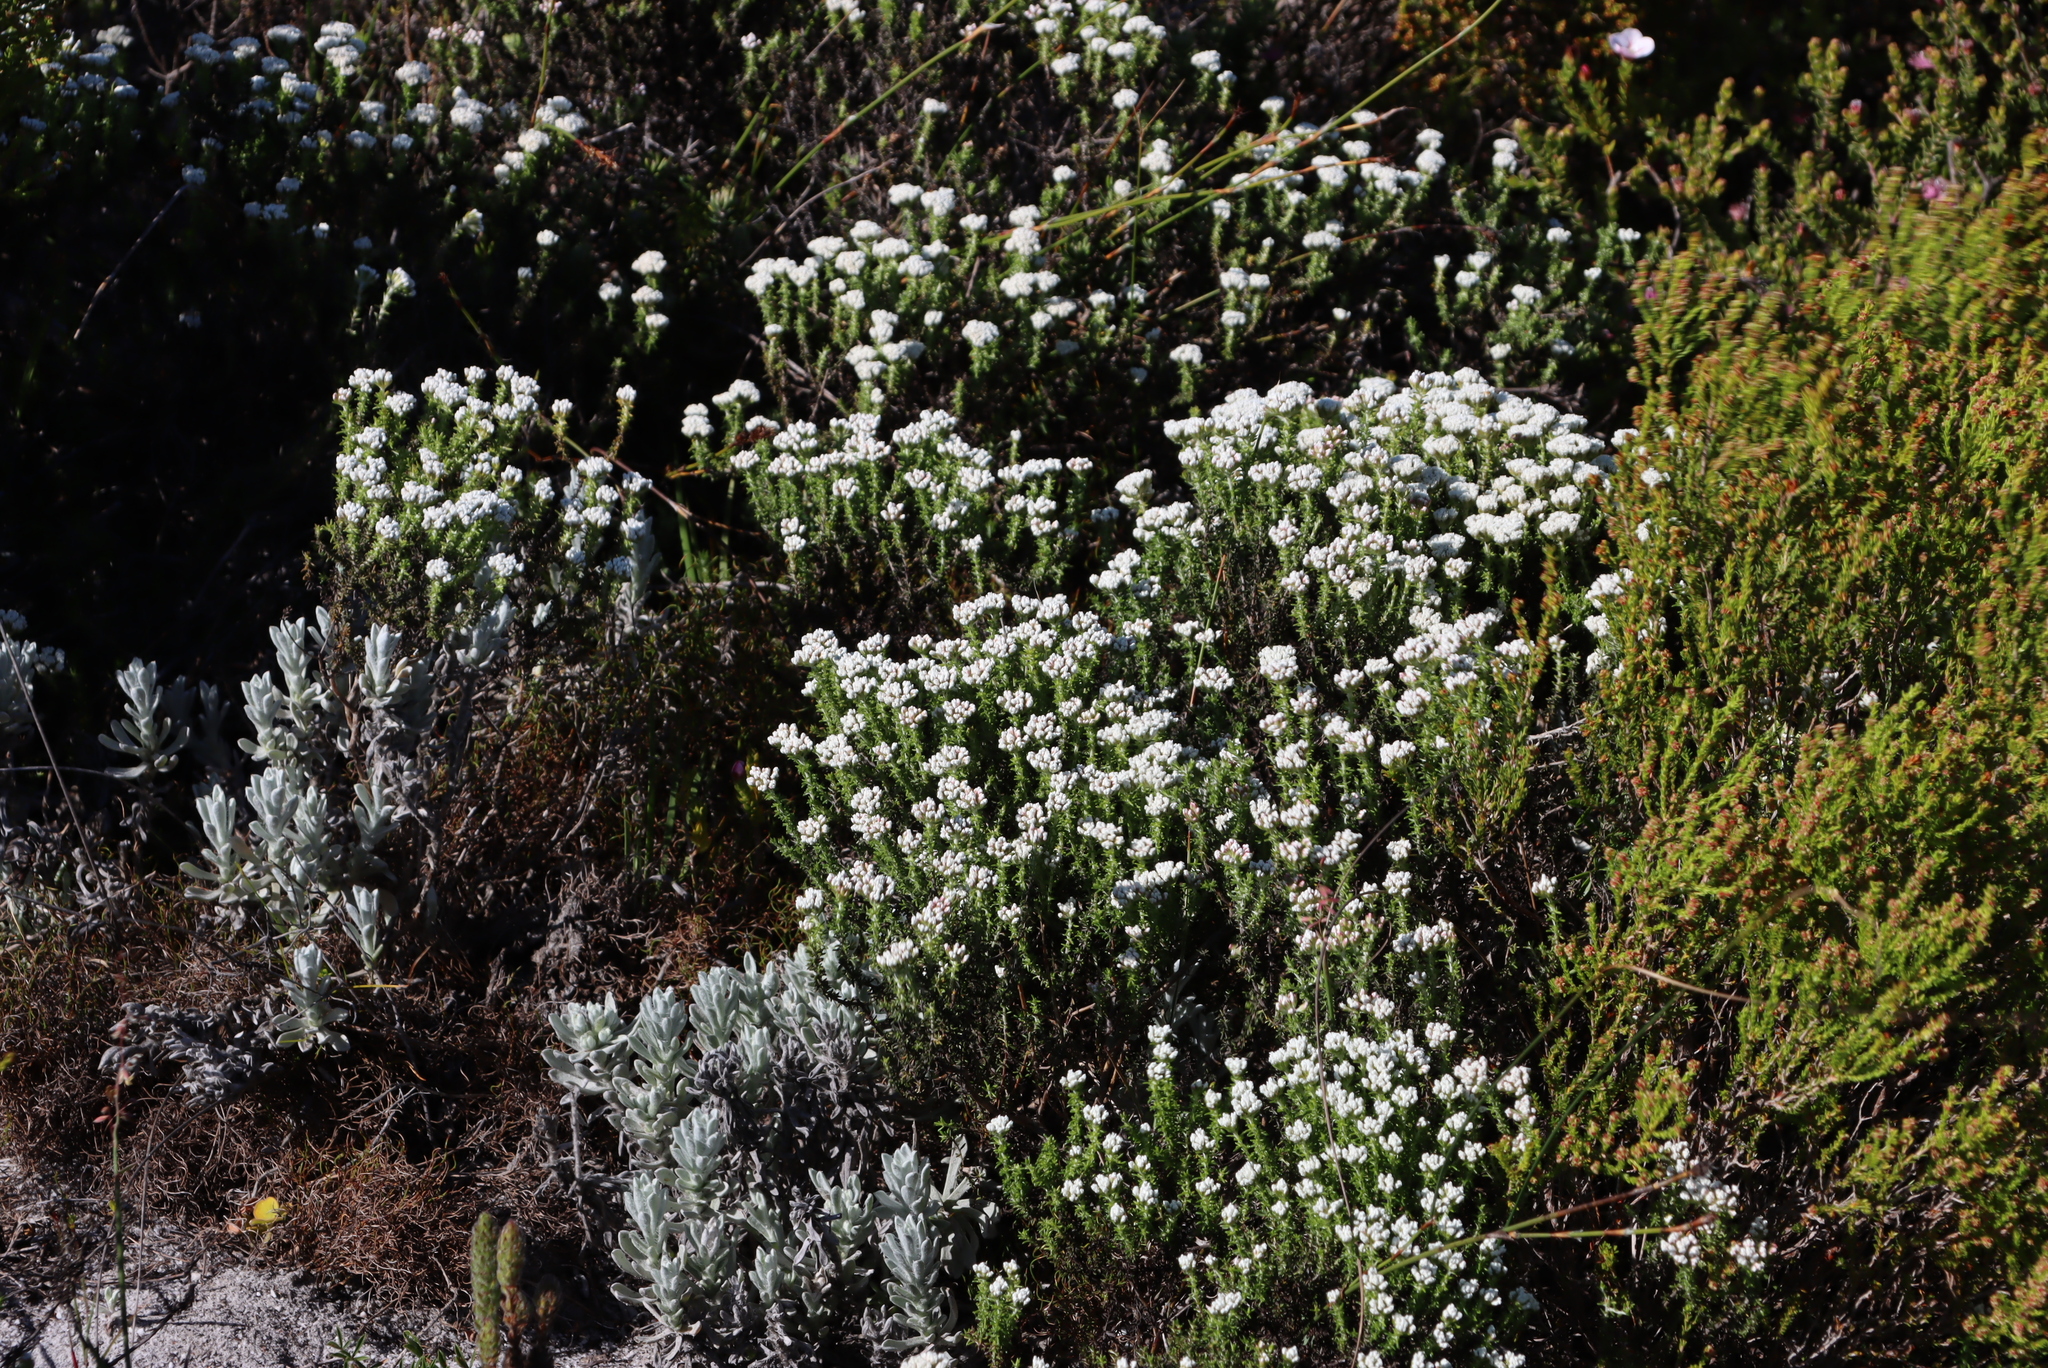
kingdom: Plantae
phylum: Tracheophyta
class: Magnoliopsida
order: Asterales
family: Asteraceae
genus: Petalacte
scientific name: Petalacte coronata
